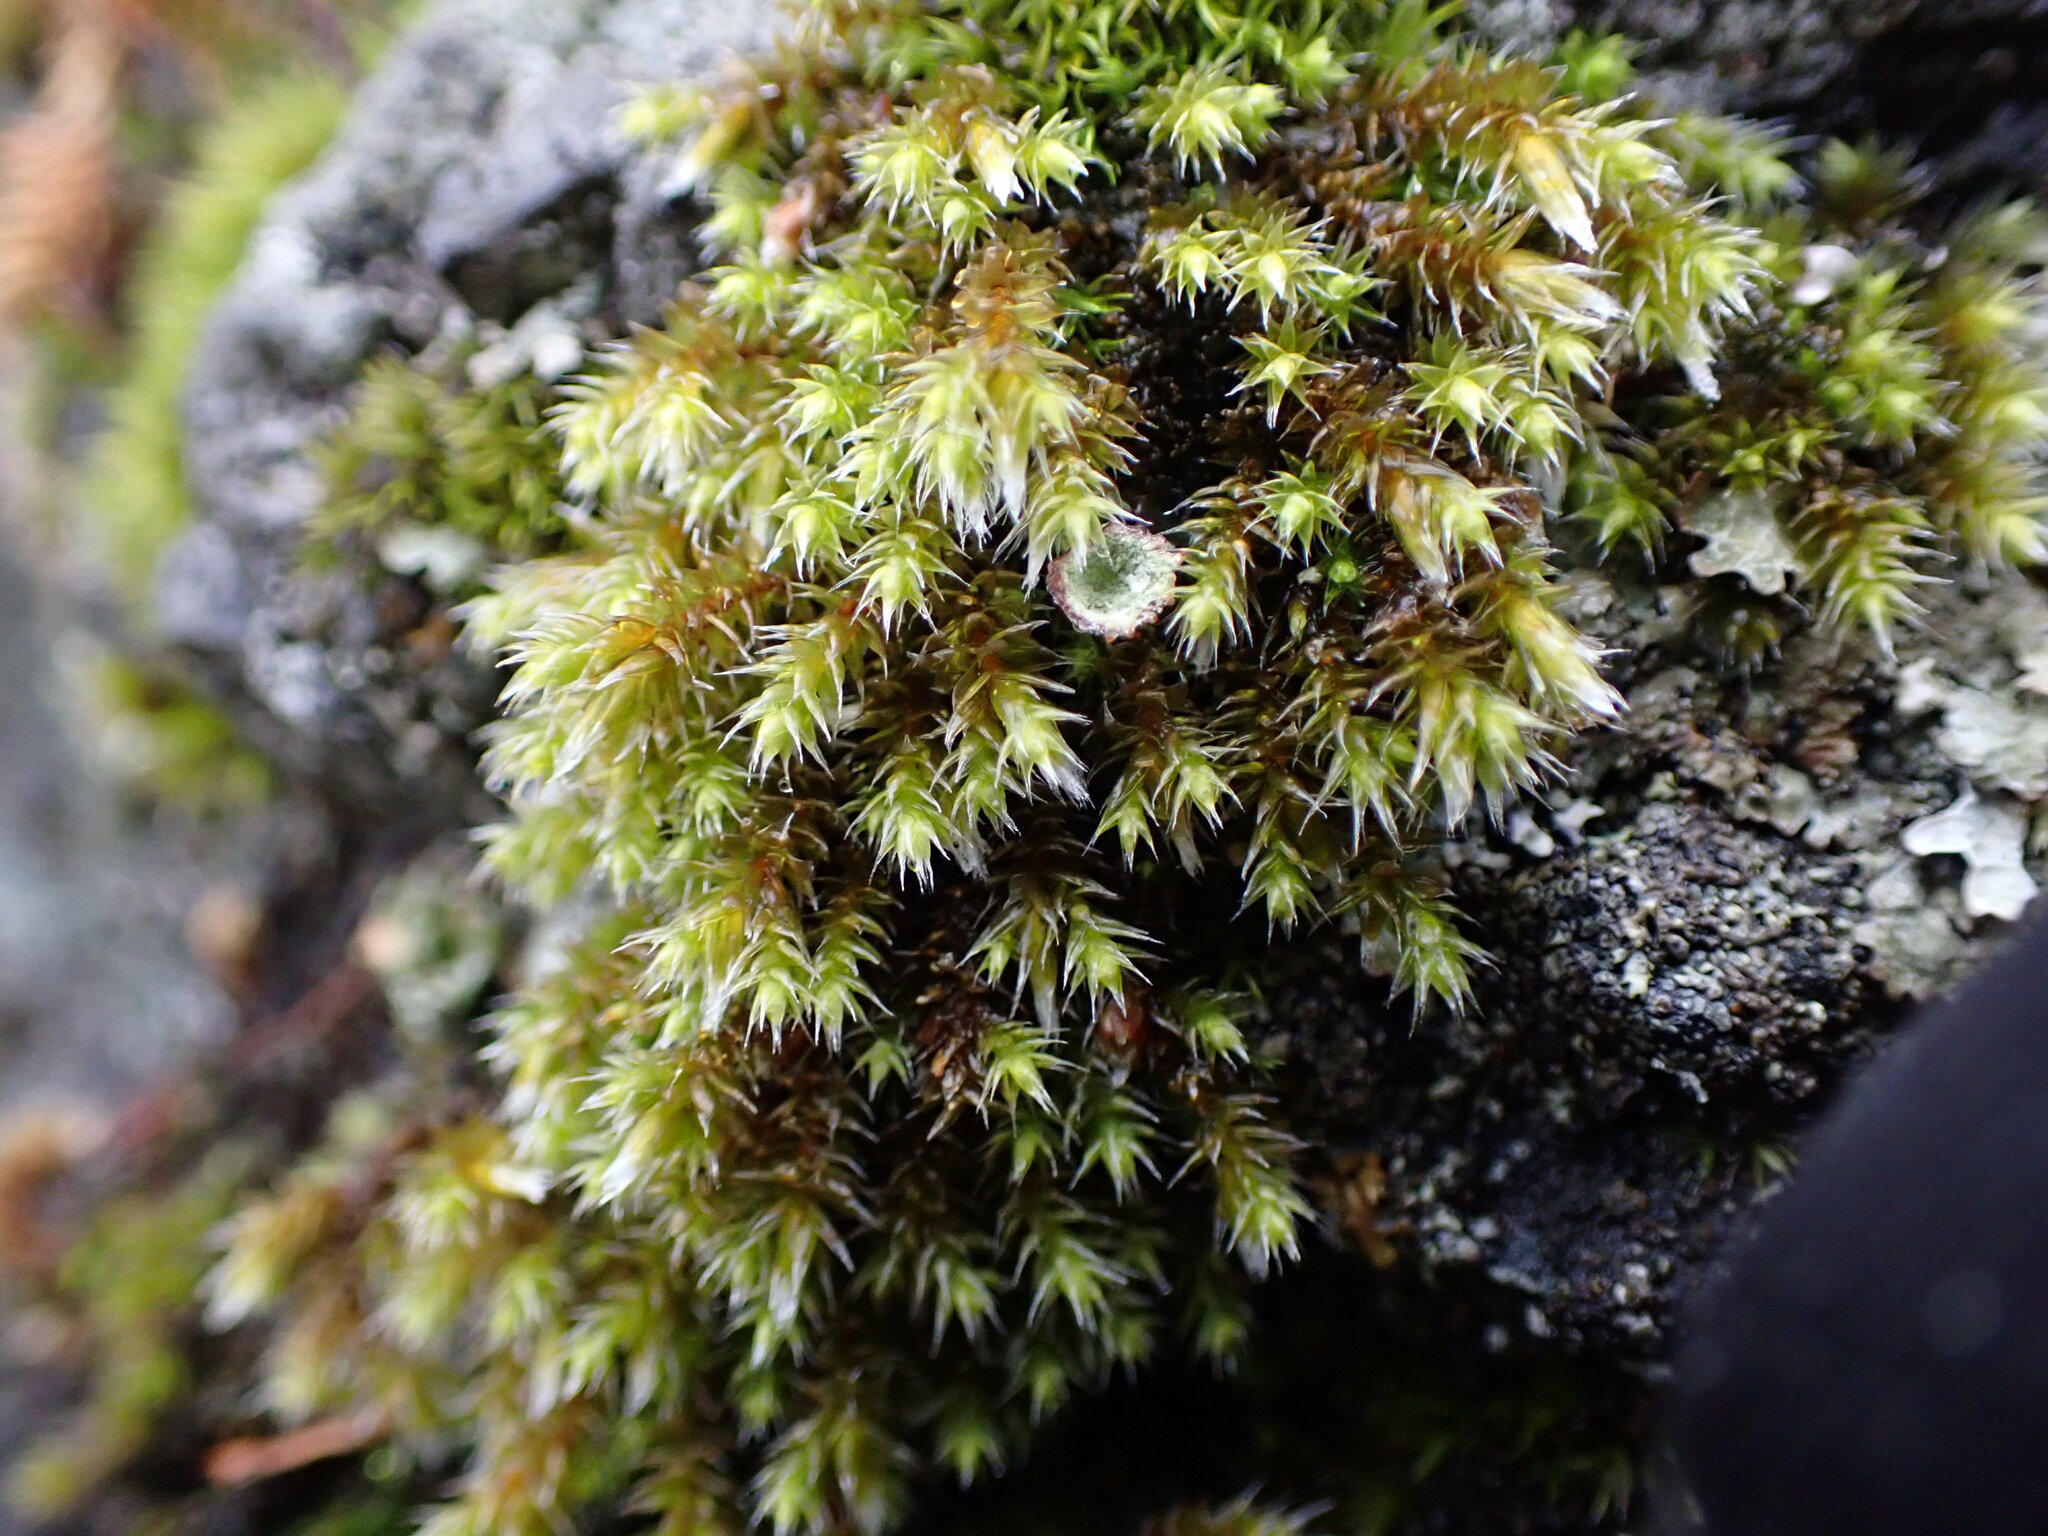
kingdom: Plantae
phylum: Bryophyta
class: Bryopsida
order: Hedwigiales
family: Hedwigiaceae
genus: Hedwigia
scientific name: Hedwigia stellata
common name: Starry hoar-moss
